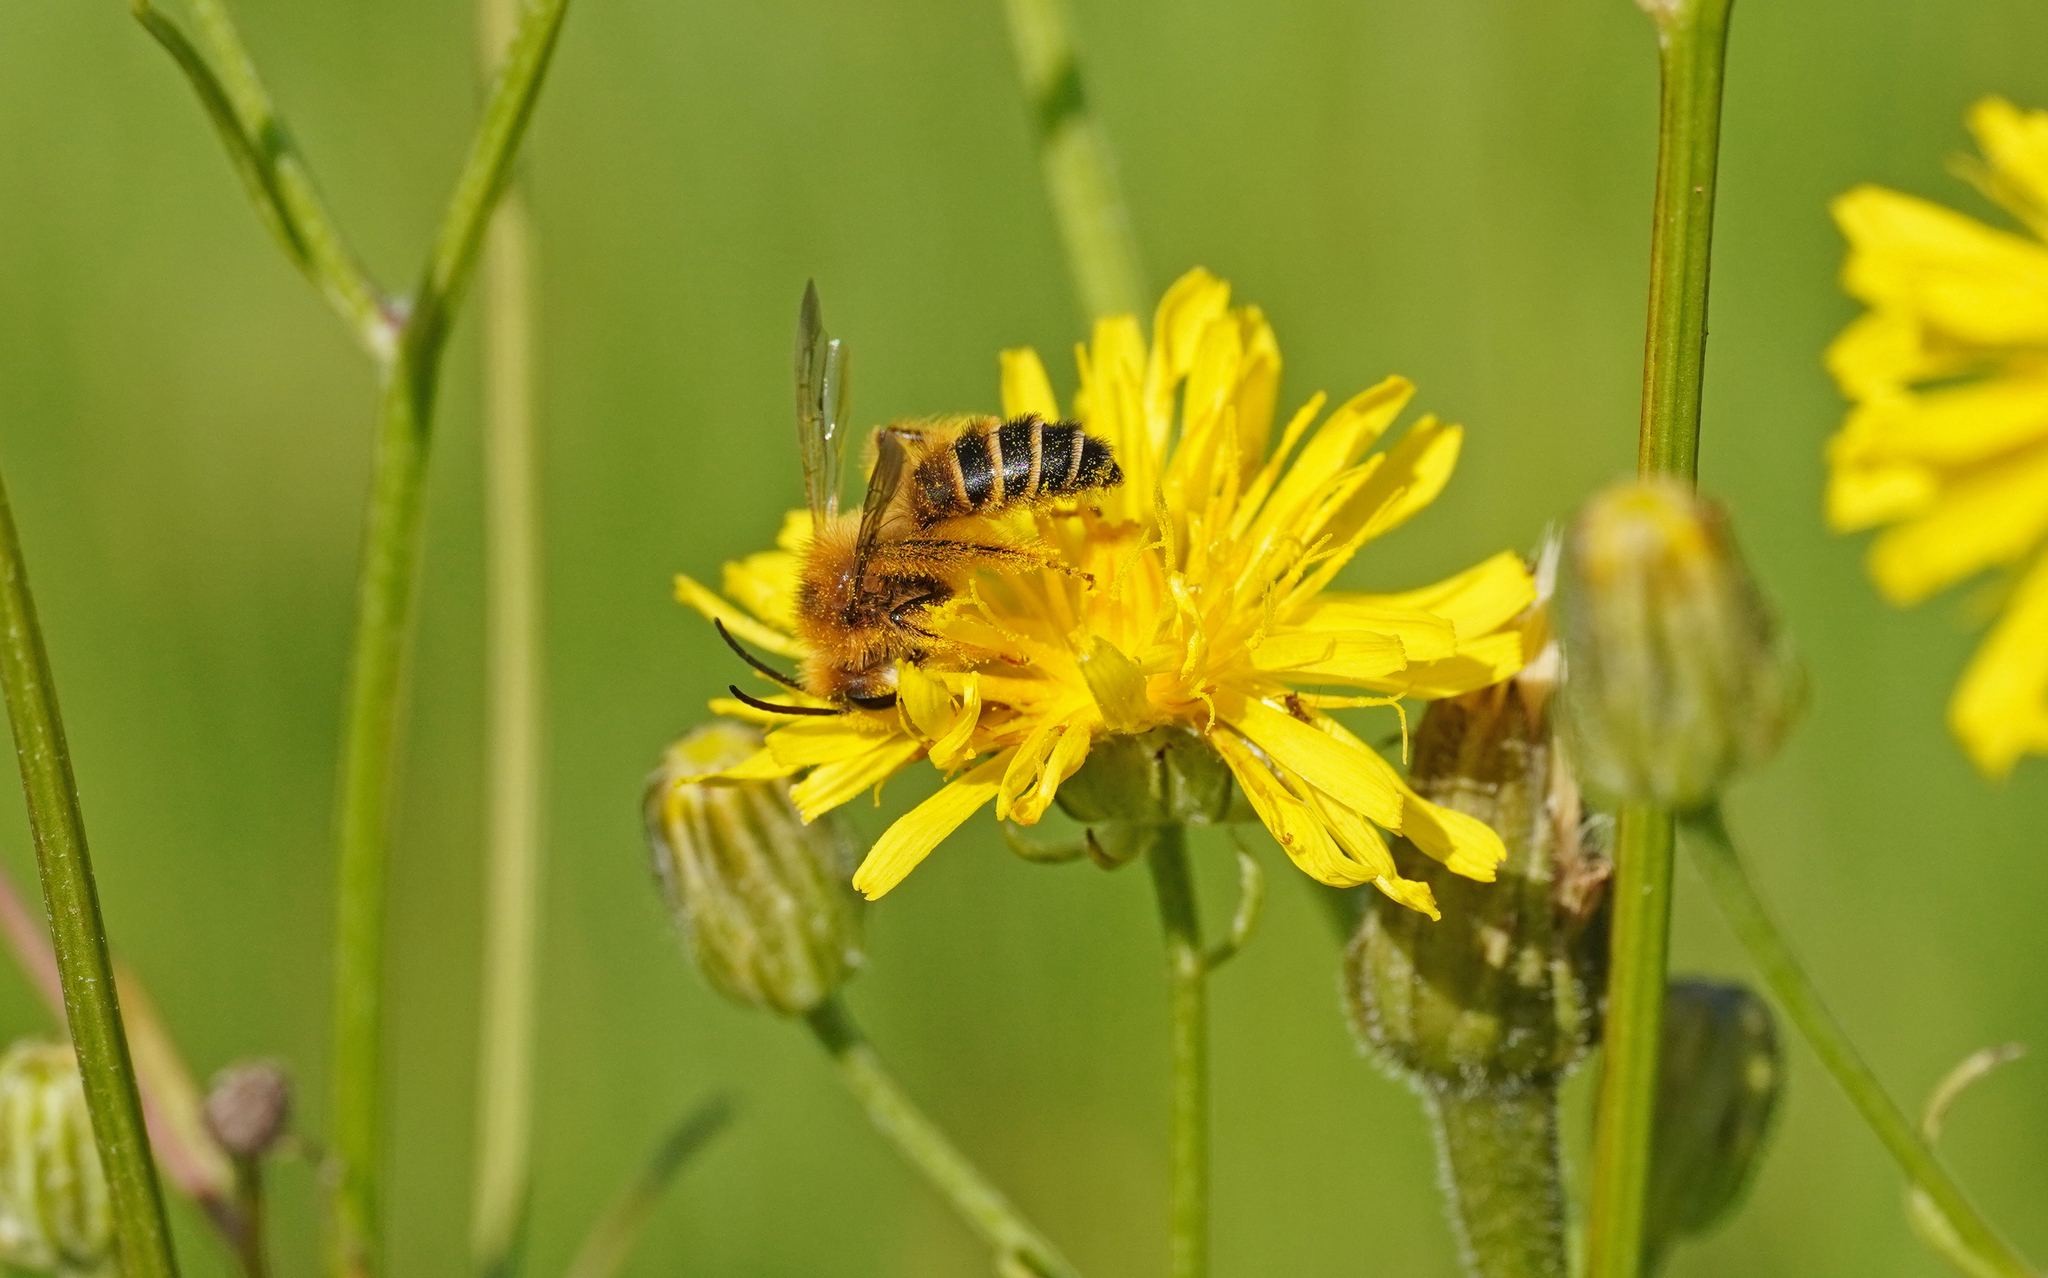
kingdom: Animalia
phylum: Arthropoda
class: Insecta
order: Hymenoptera
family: Melittidae
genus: Dasypoda
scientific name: Dasypoda hirtipes
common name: Pantaloon bee
